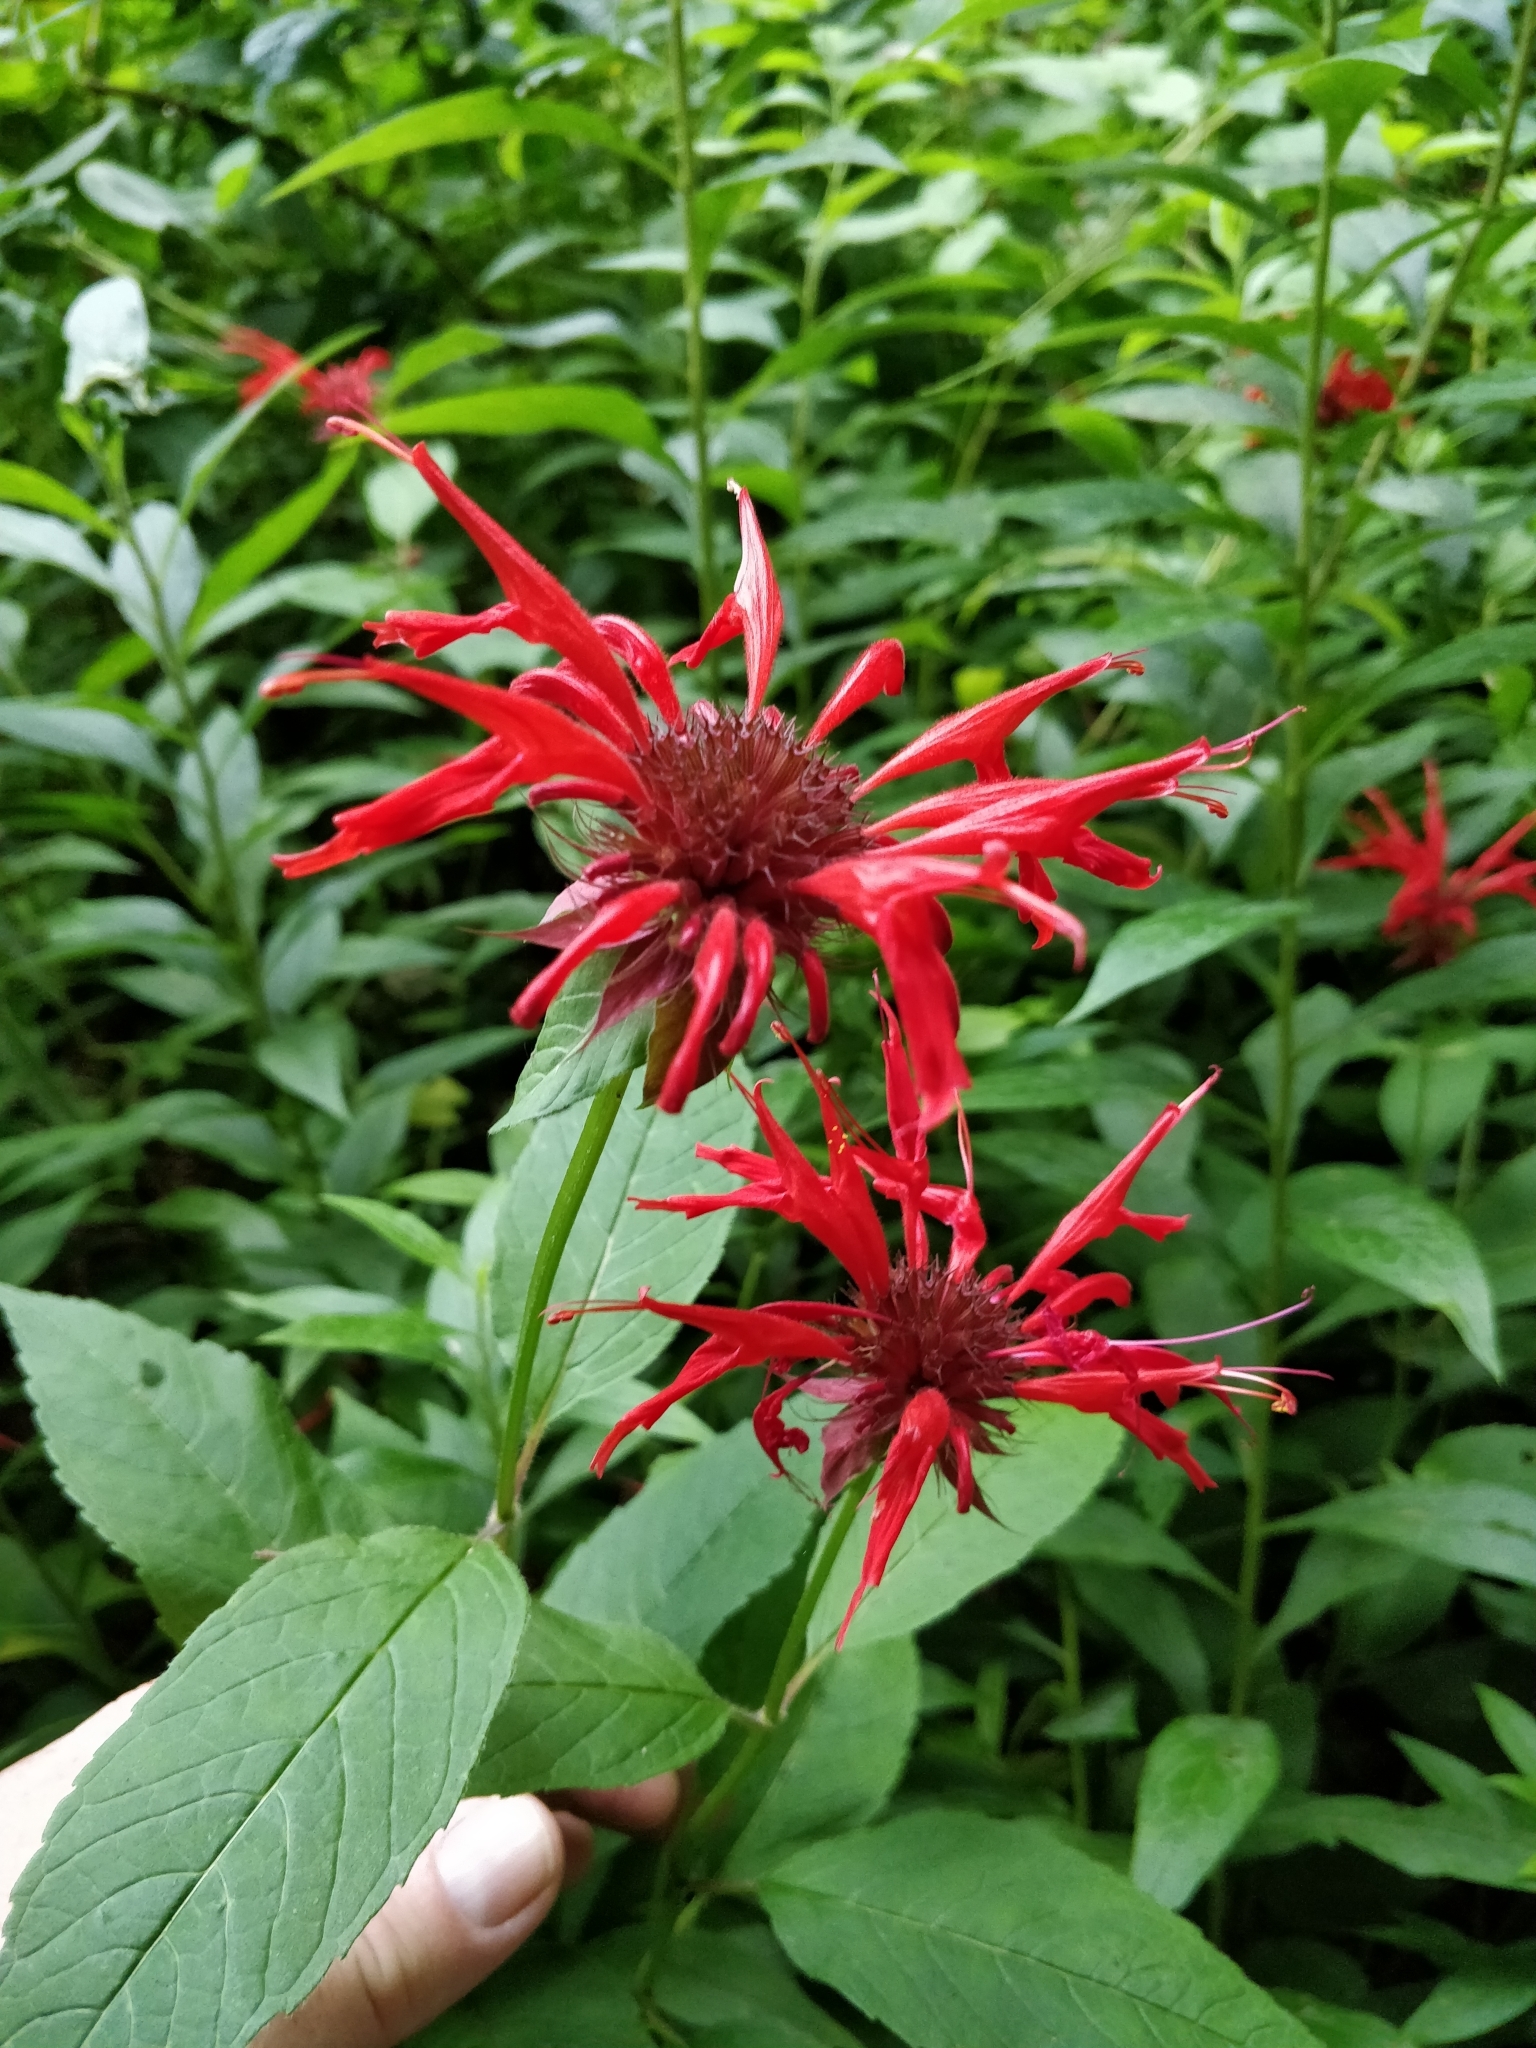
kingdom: Plantae
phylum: Tracheophyta
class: Magnoliopsida
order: Lamiales
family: Lamiaceae
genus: Monarda
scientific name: Monarda didyma
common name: Beebalm
